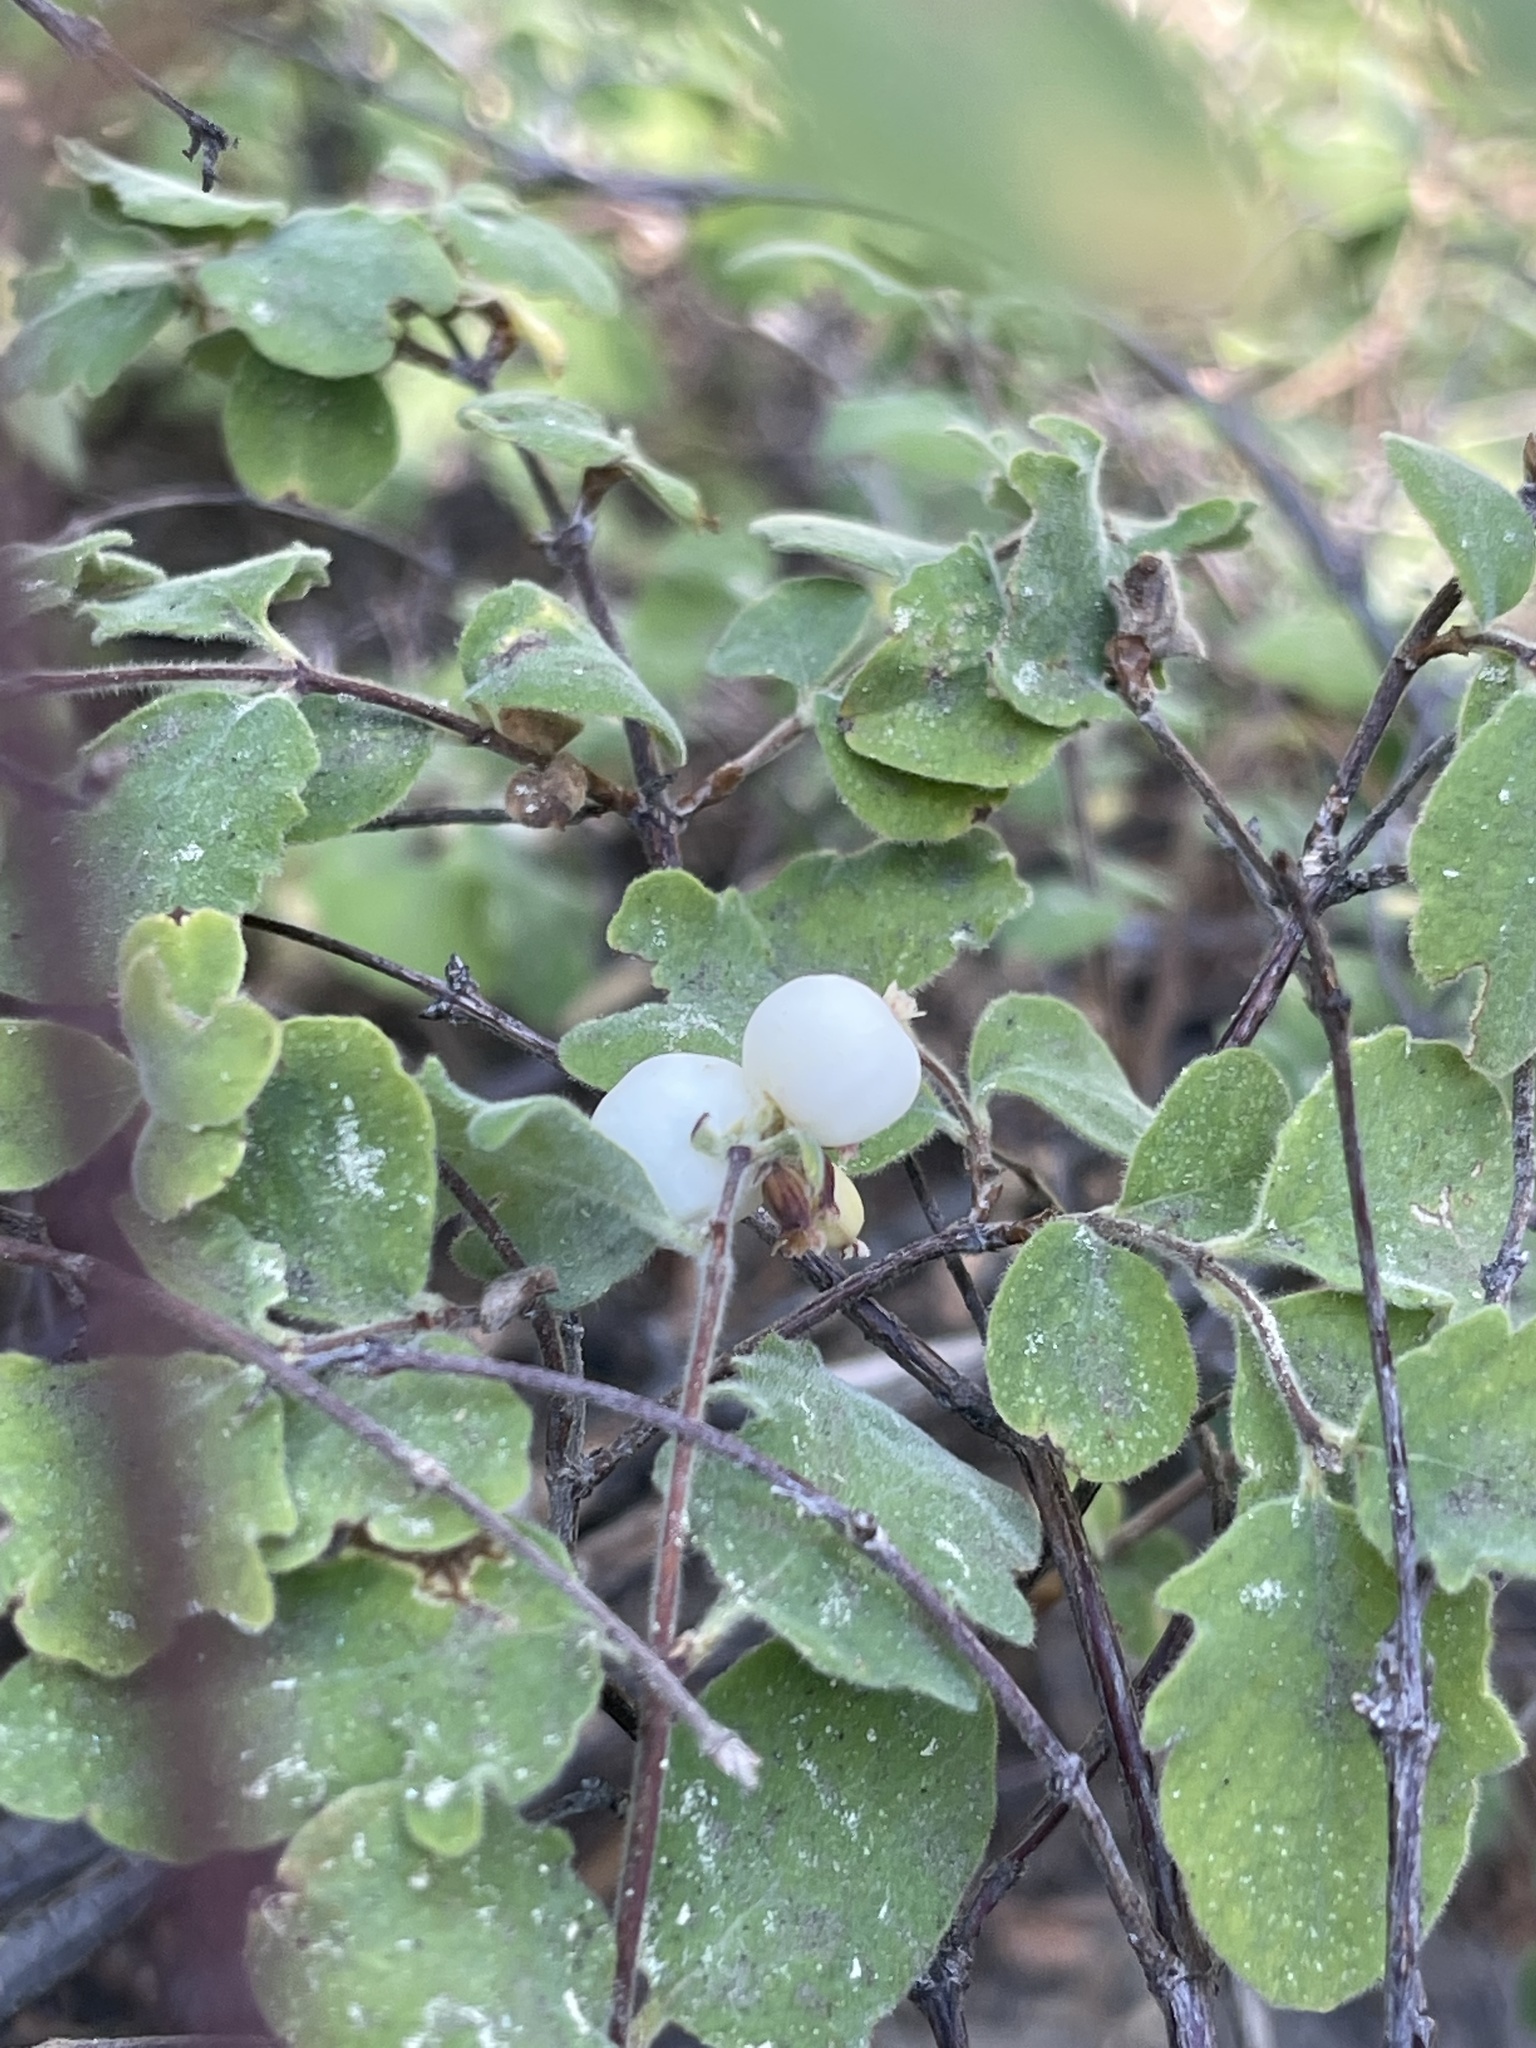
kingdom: Plantae
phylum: Tracheophyta
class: Magnoliopsida
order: Dipsacales
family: Caprifoliaceae
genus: Symphoricarpos
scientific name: Symphoricarpos mollis
